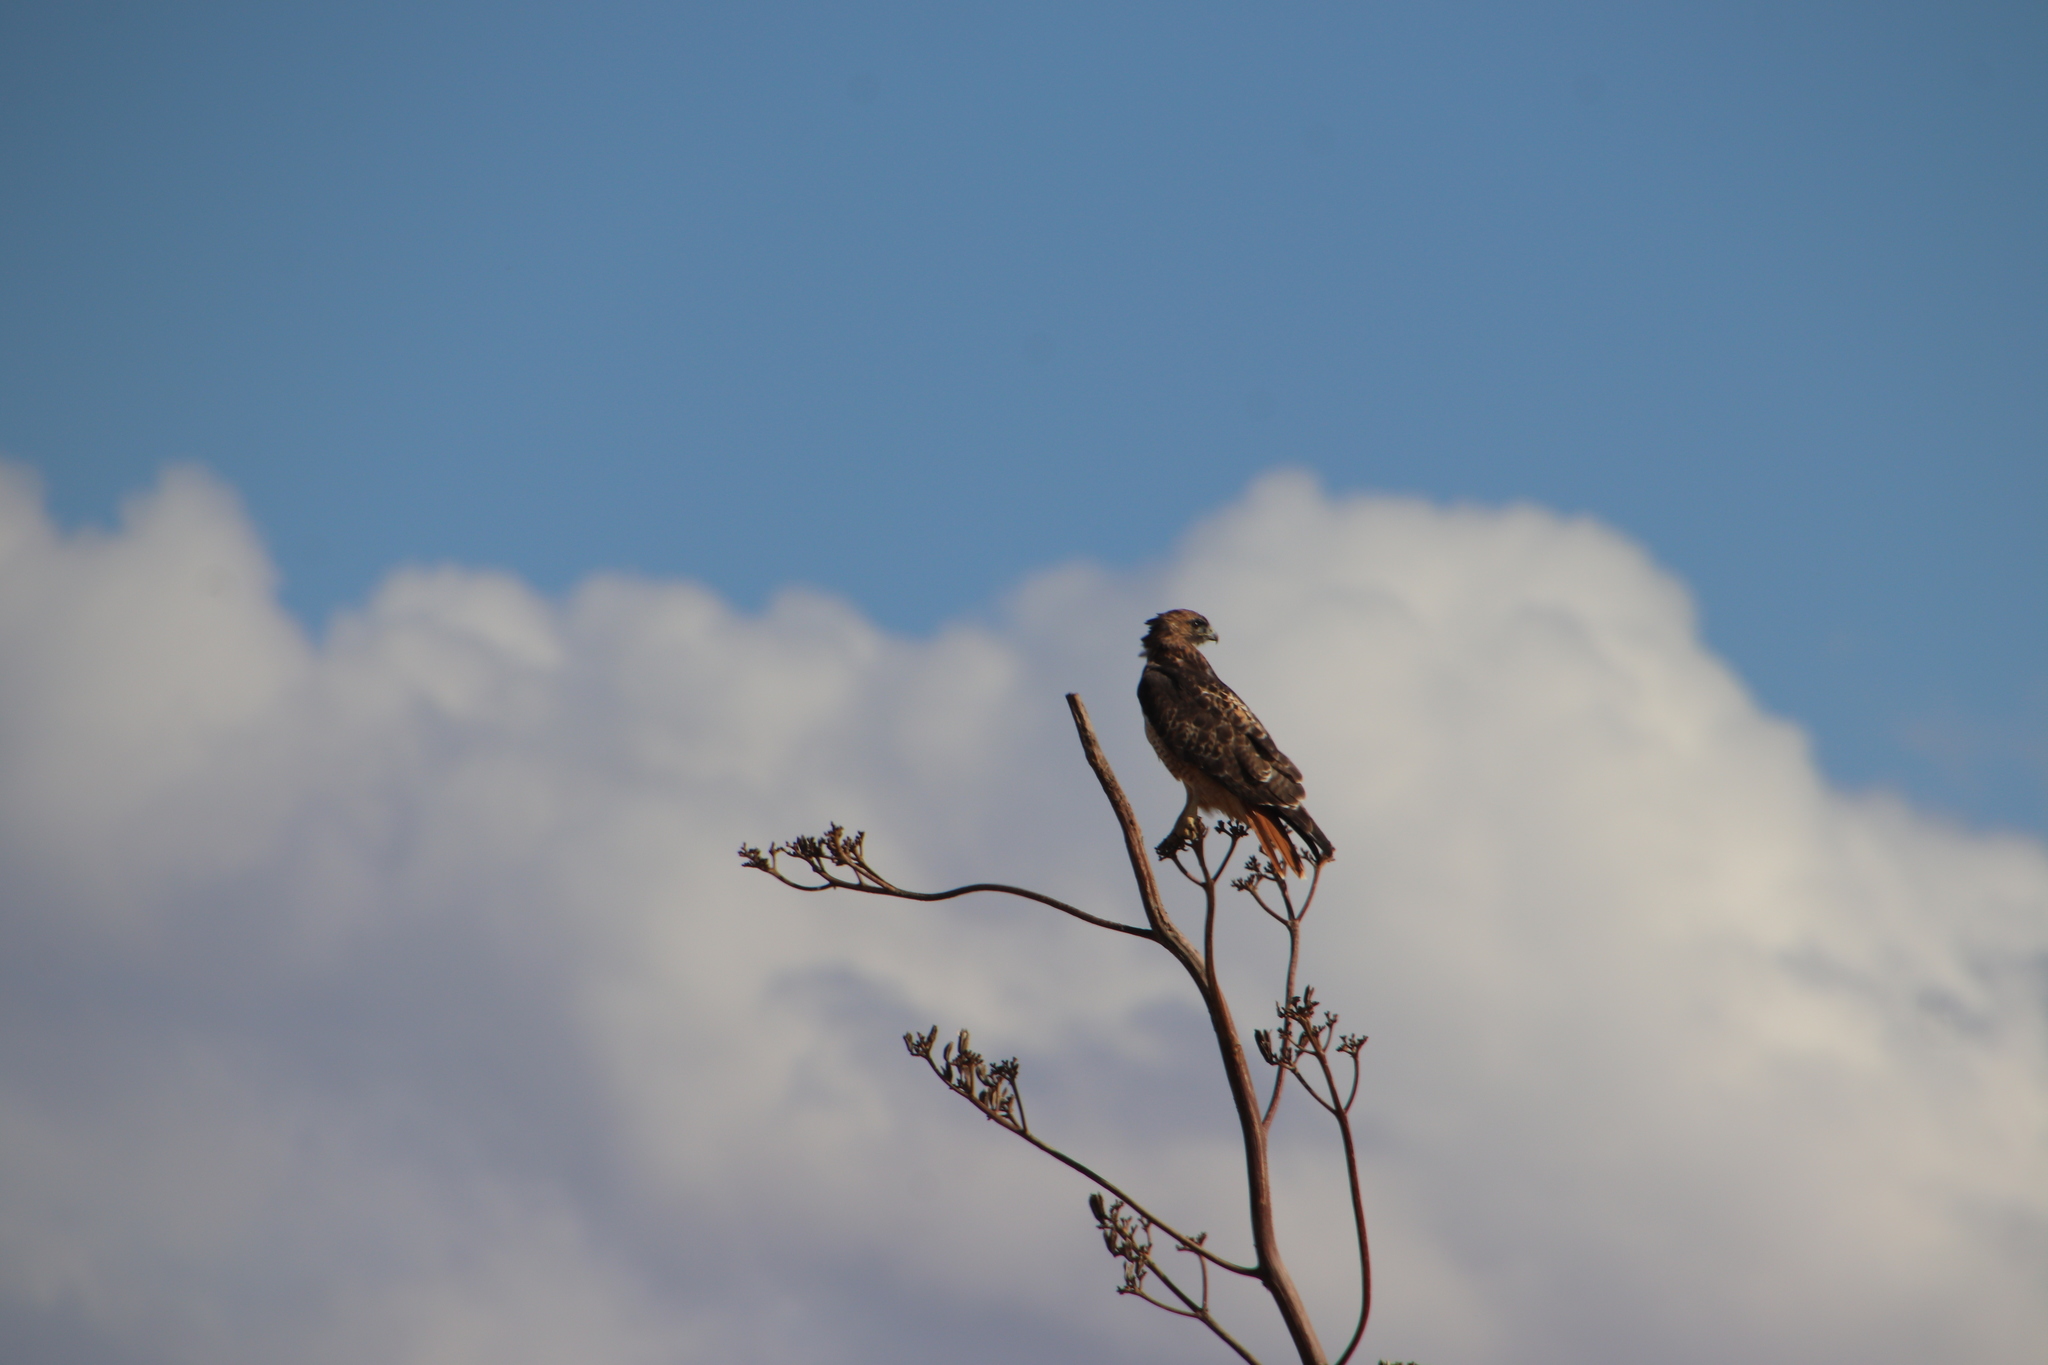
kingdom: Animalia
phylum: Chordata
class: Aves
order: Accipitriformes
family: Accipitridae
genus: Buteo
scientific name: Buteo jamaicensis
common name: Red-tailed hawk
